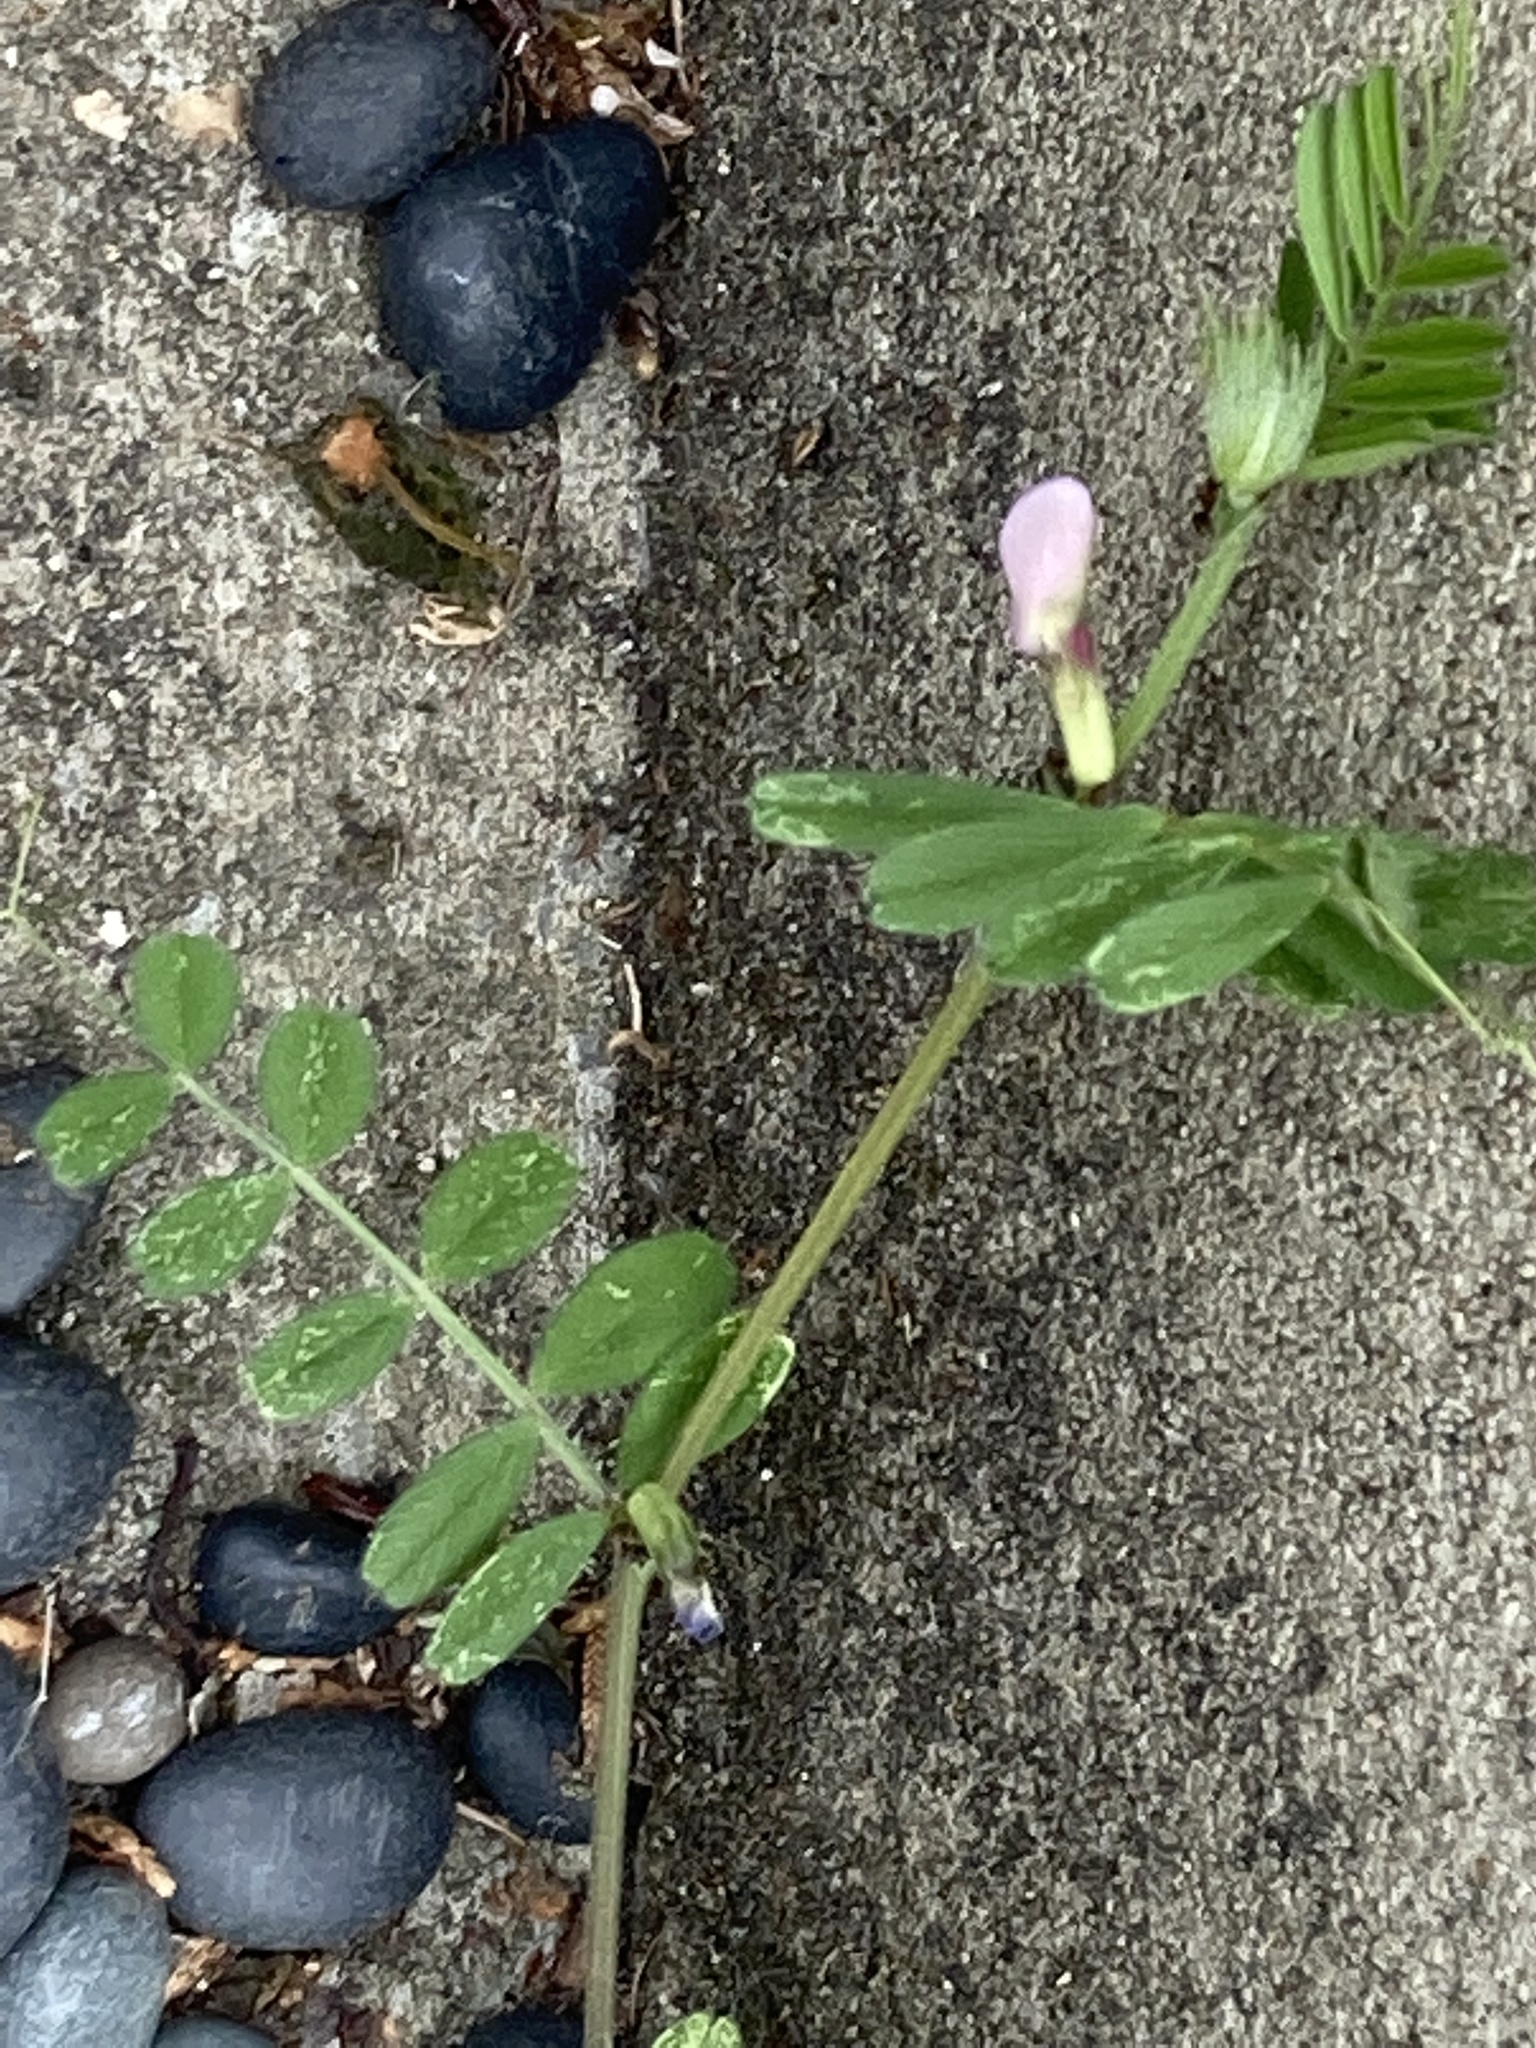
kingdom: Plantae
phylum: Tracheophyta
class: Magnoliopsida
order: Fabales
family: Fabaceae
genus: Vicia
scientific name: Vicia sativa
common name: Garden vetch
